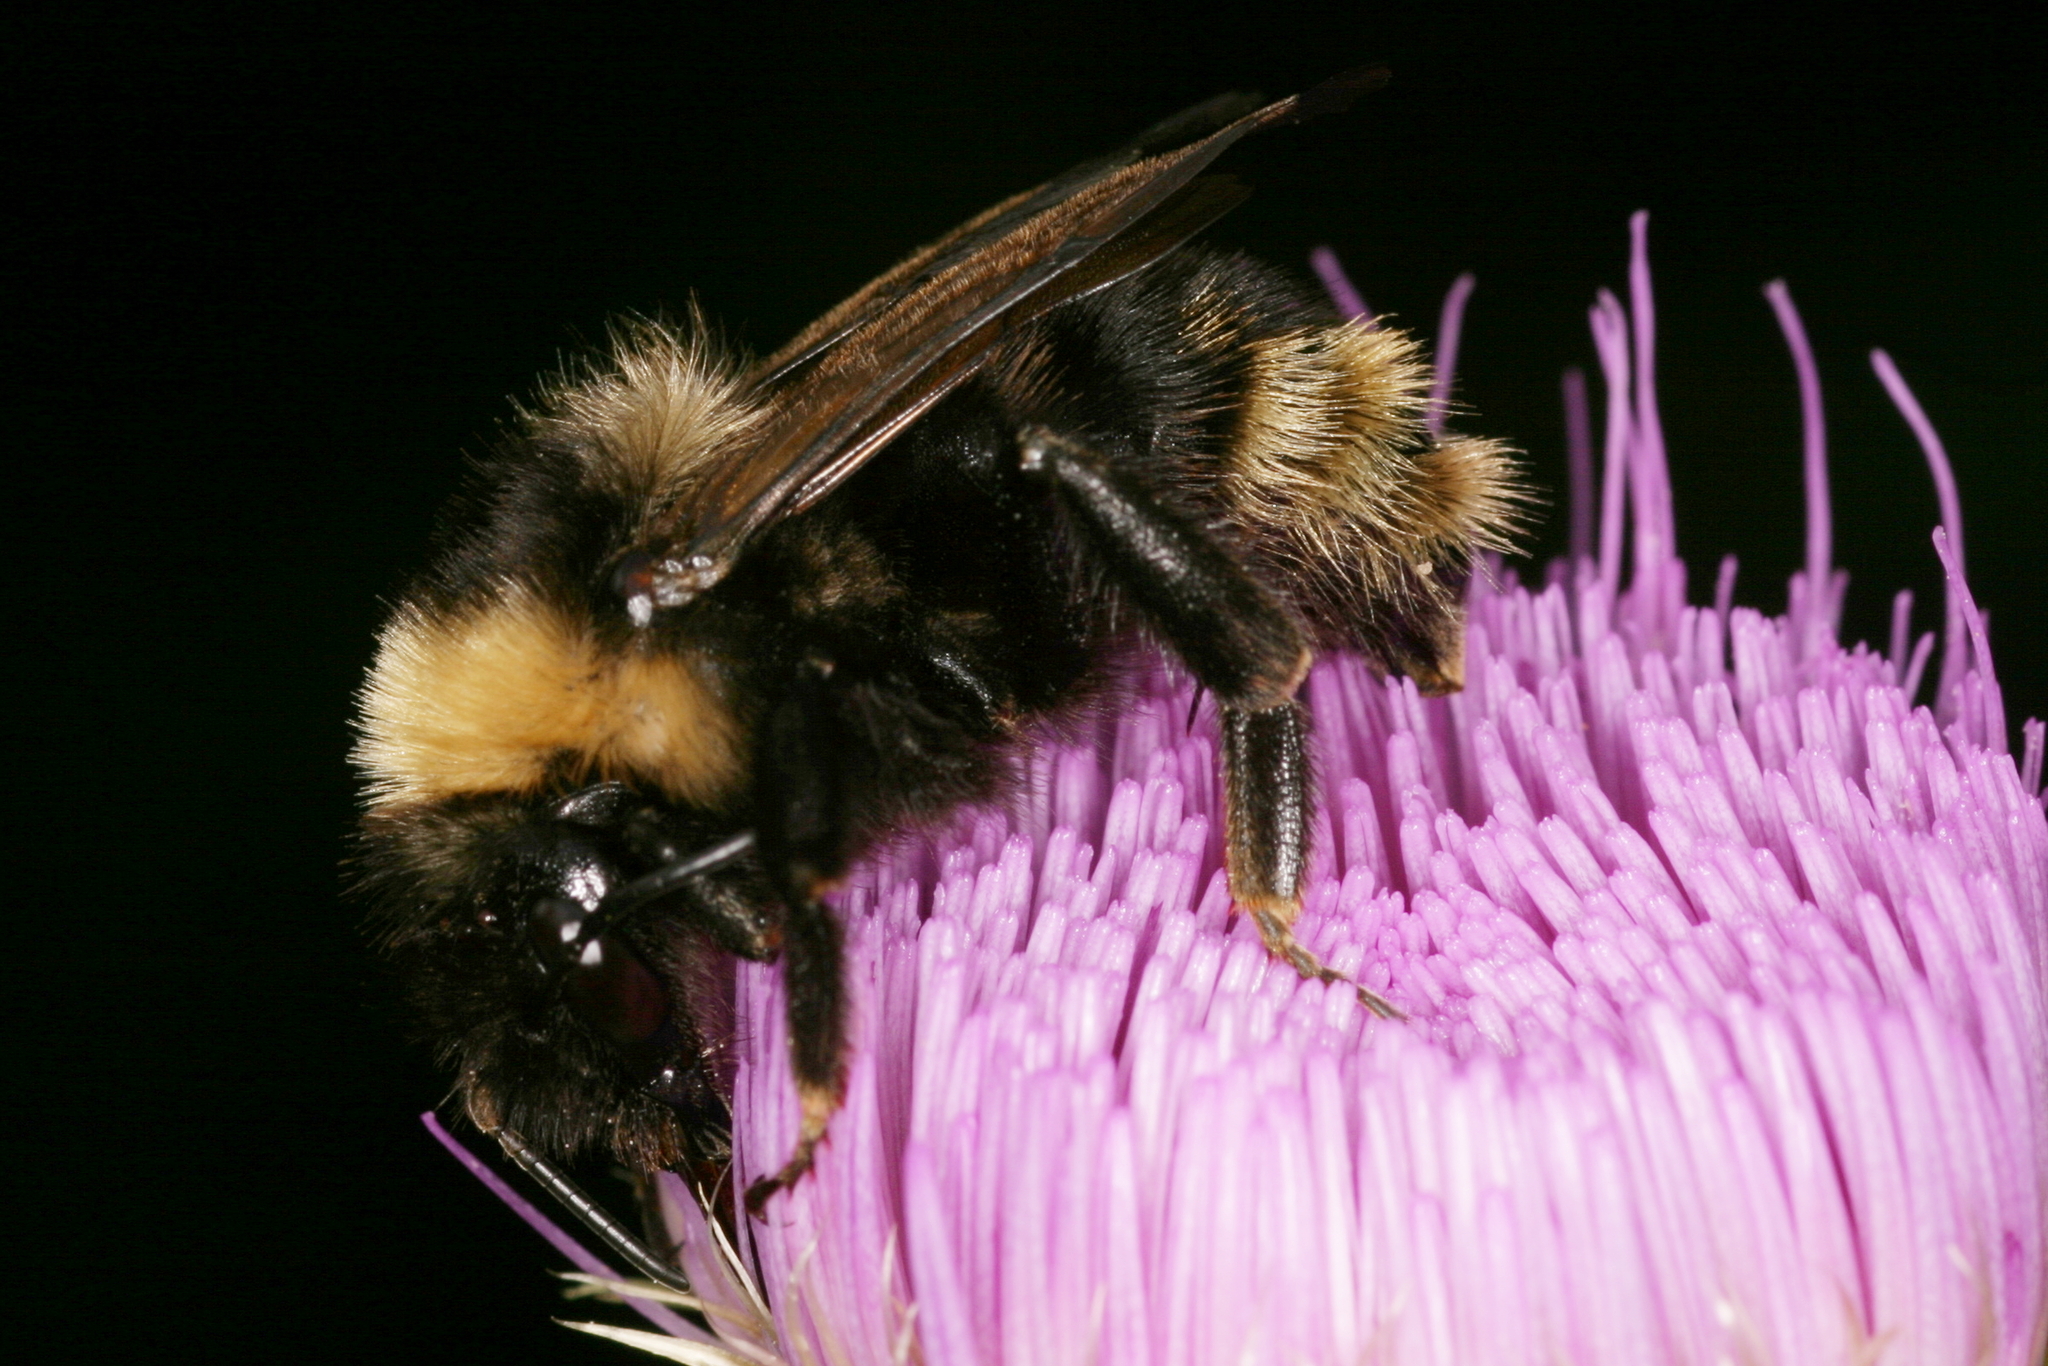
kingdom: Animalia
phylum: Arthropoda
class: Insecta
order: Hymenoptera
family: Apidae
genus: Bombus
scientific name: Bombus campestris
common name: Field cuckoo-bee
